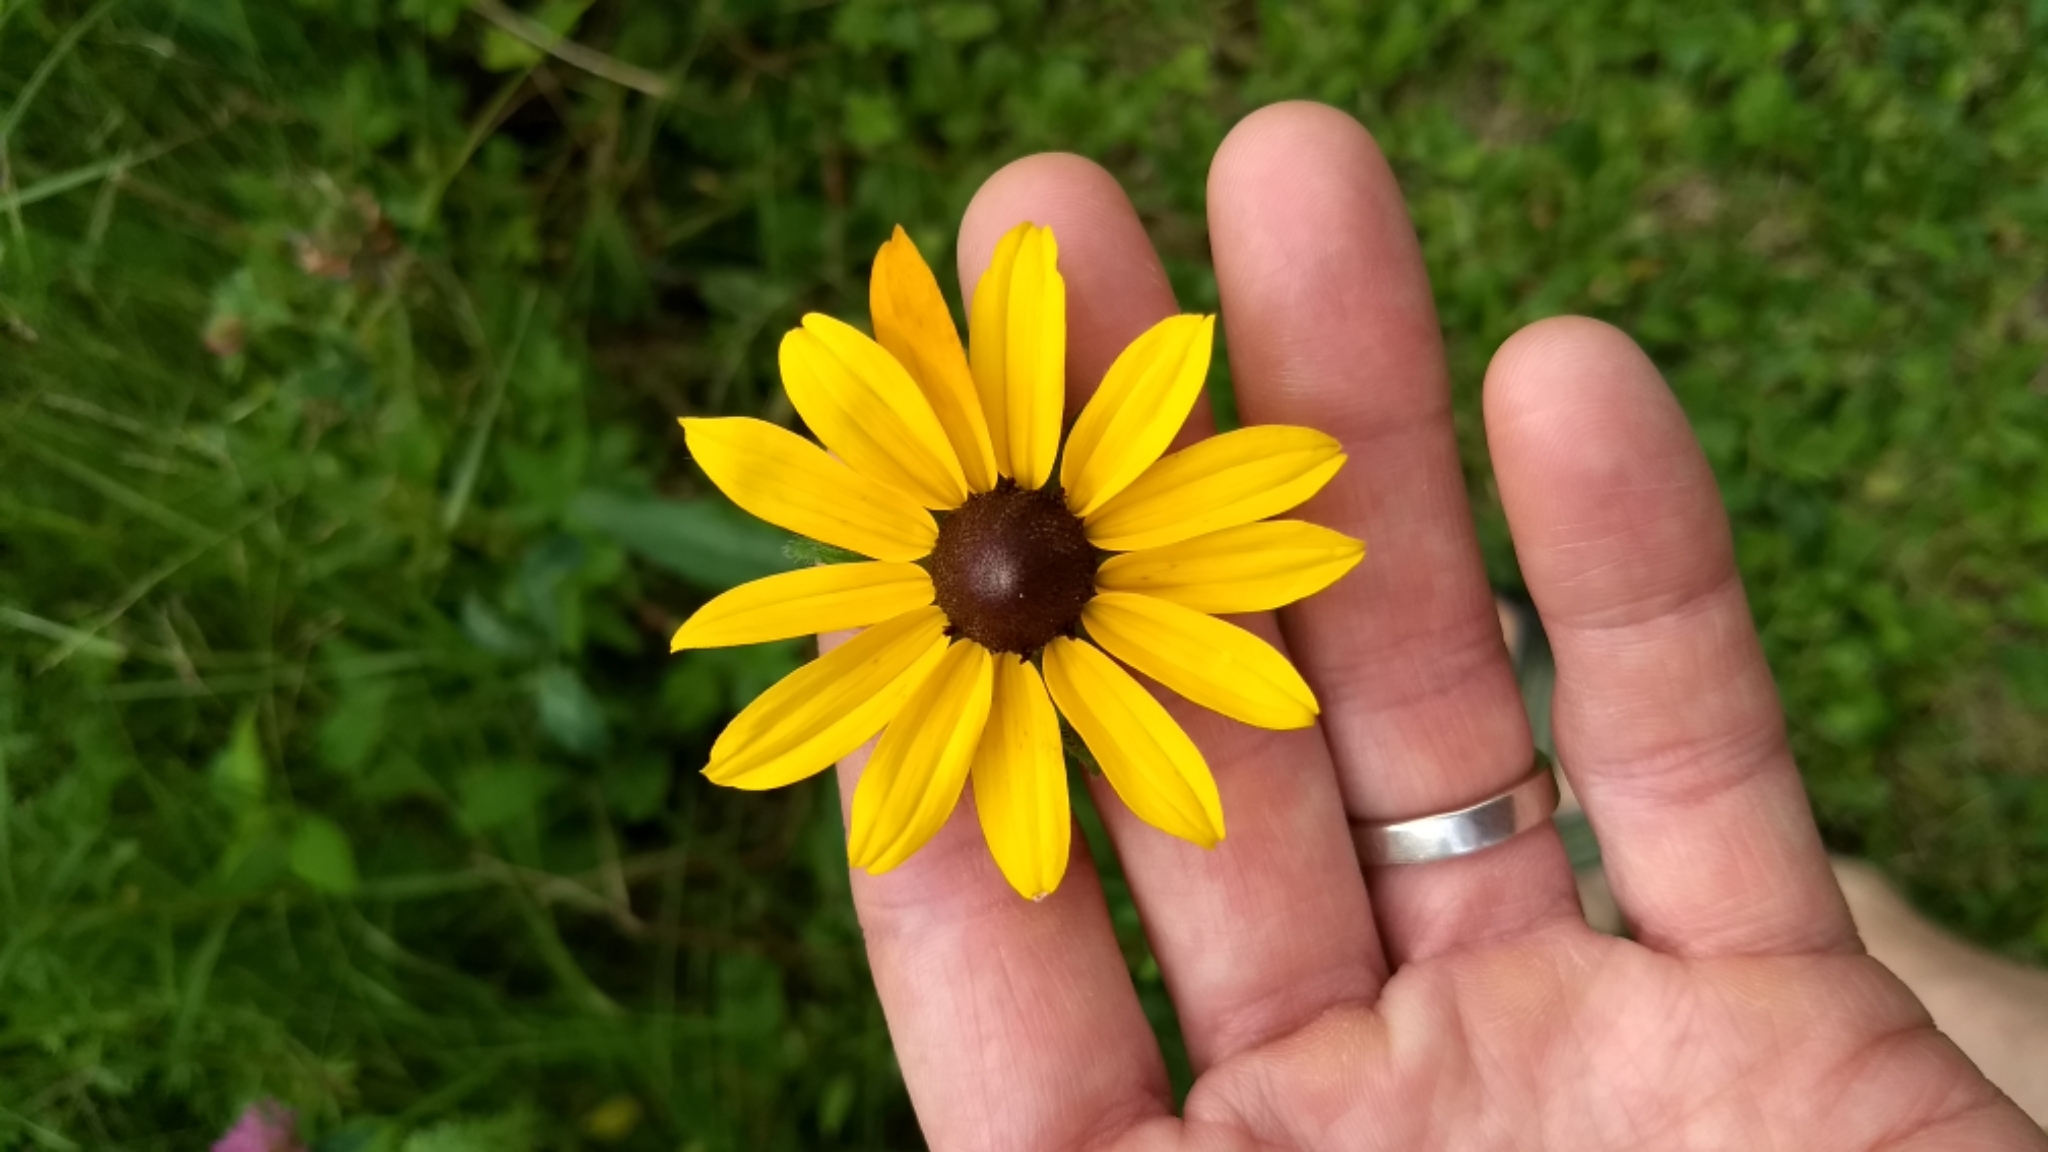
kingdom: Plantae
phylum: Tracheophyta
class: Magnoliopsida
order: Asterales
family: Asteraceae
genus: Rudbeckia
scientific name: Rudbeckia hirta
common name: Black-eyed-susan
